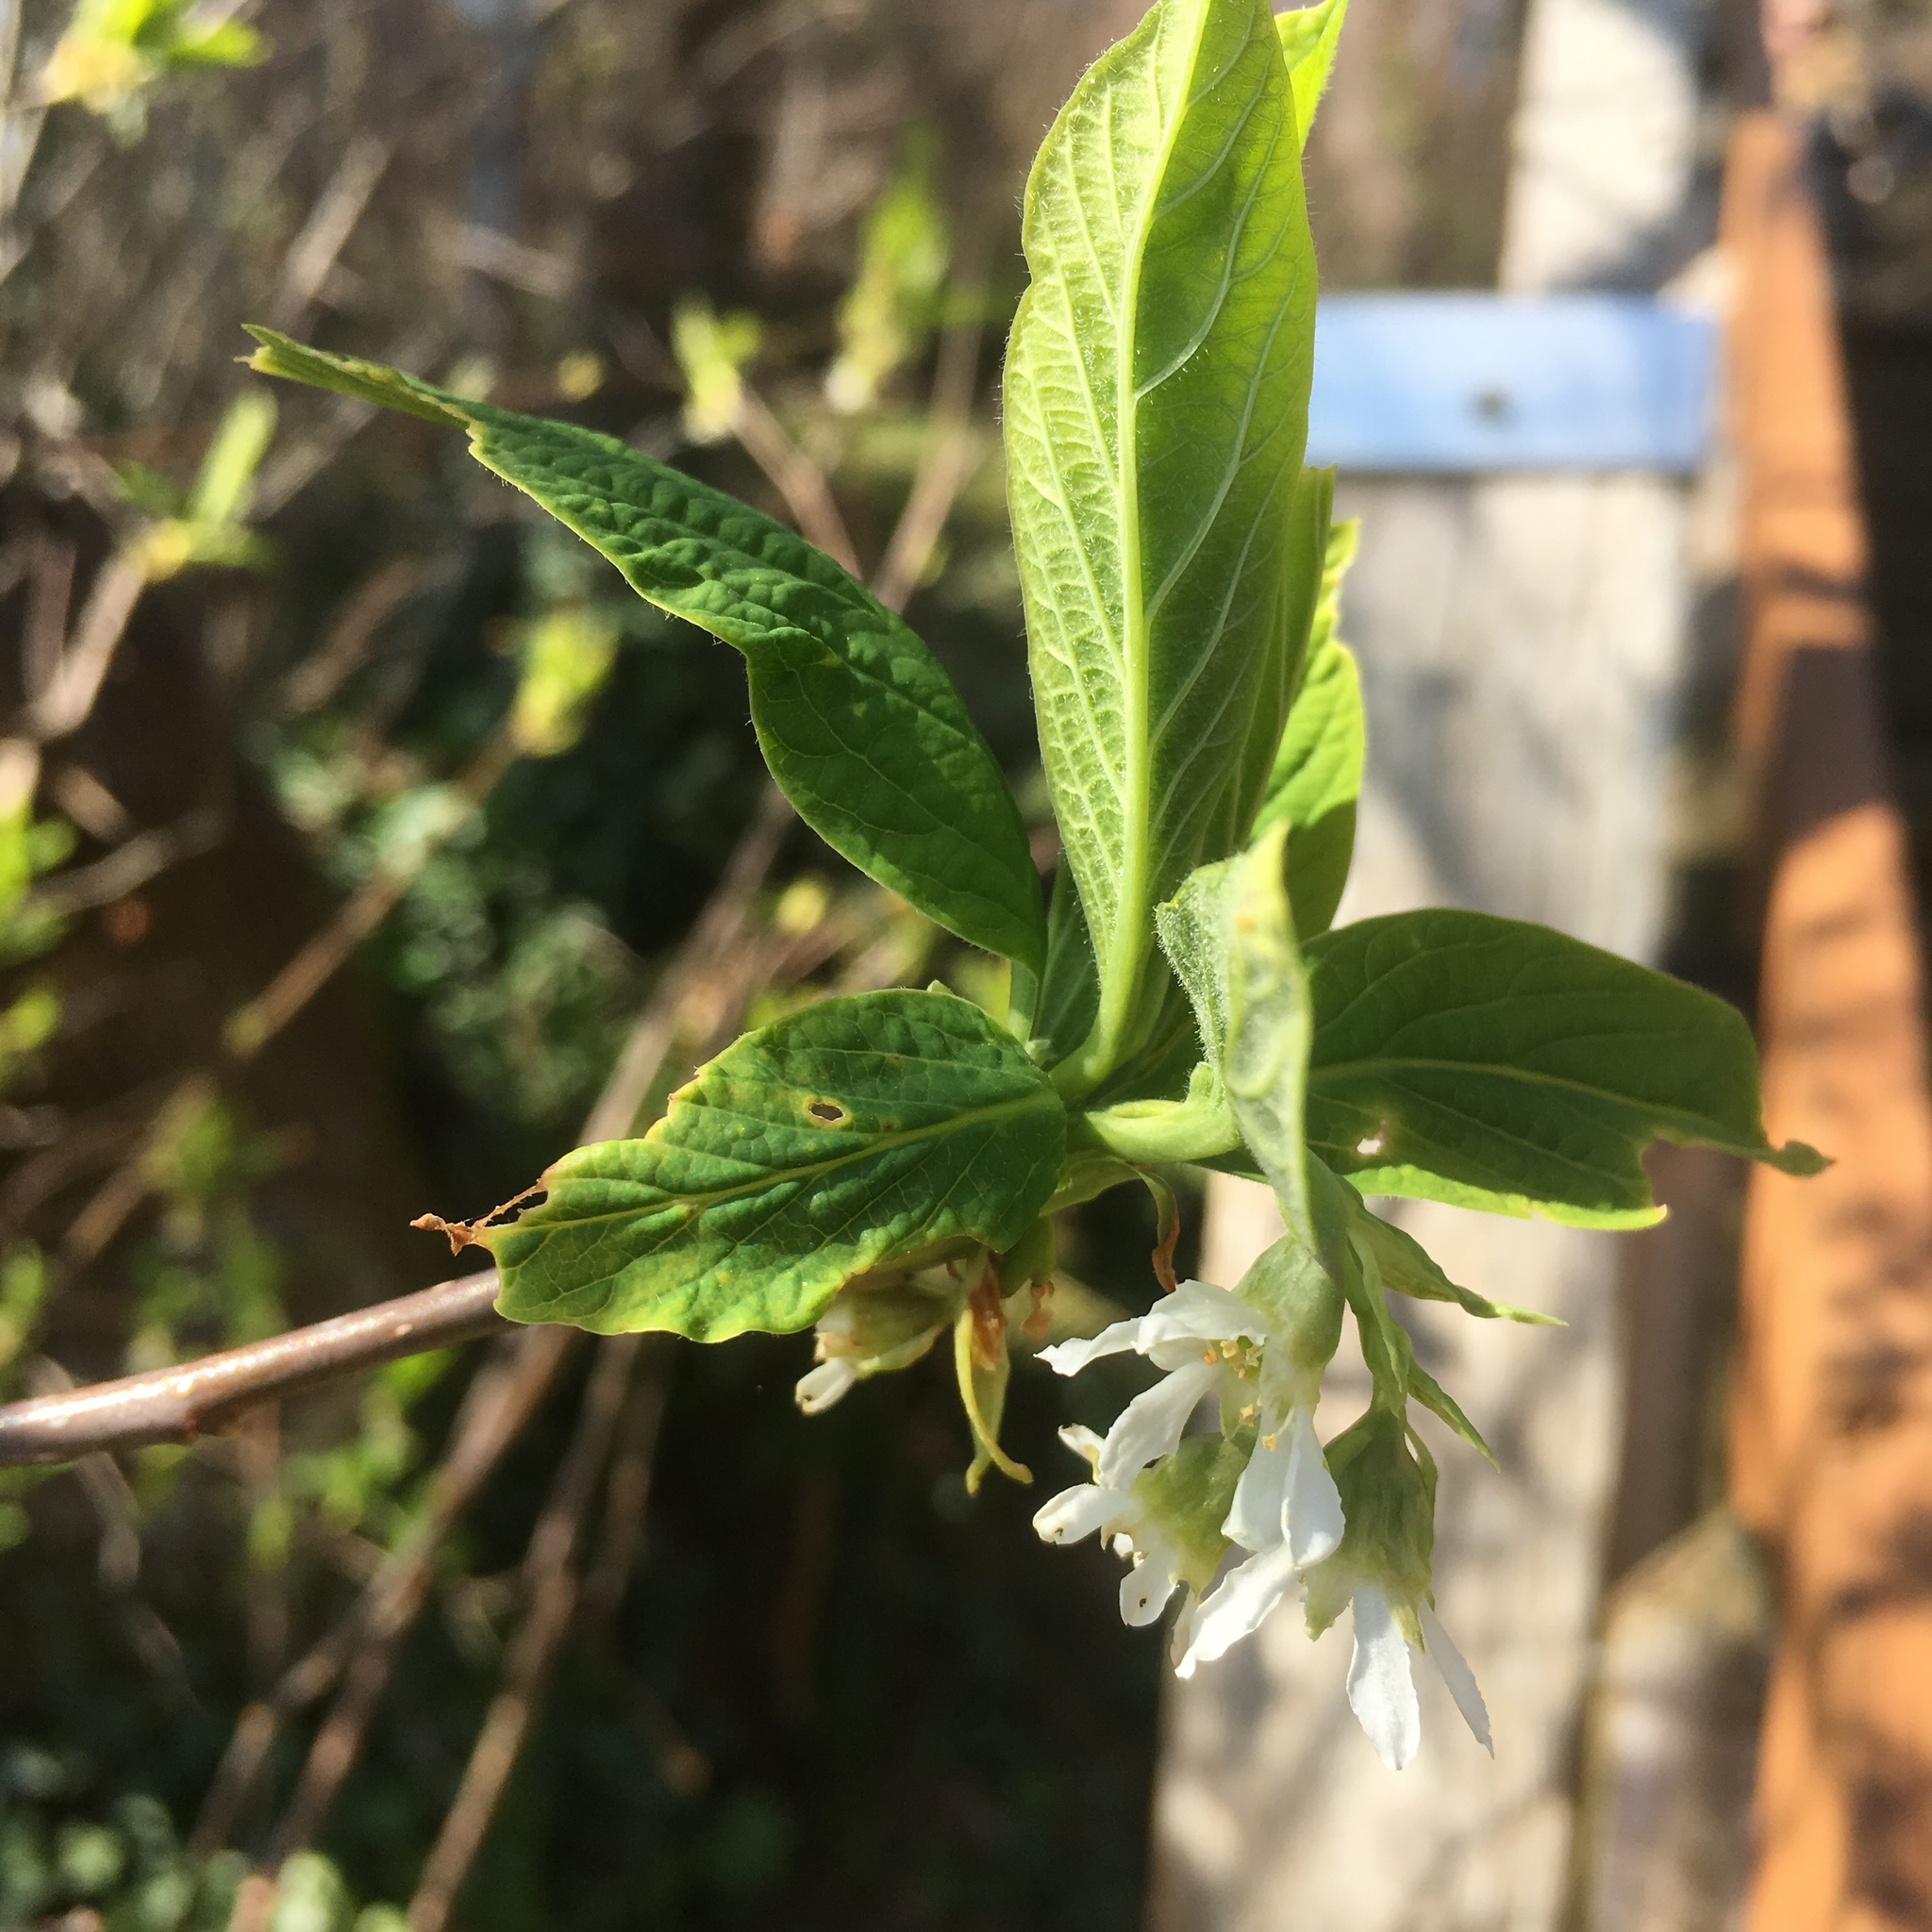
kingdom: Plantae
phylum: Tracheophyta
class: Magnoliopsida
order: Rosales
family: Rosaceae
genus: Oemleria
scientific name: Oemleria cerasiformis
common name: Osoberry
